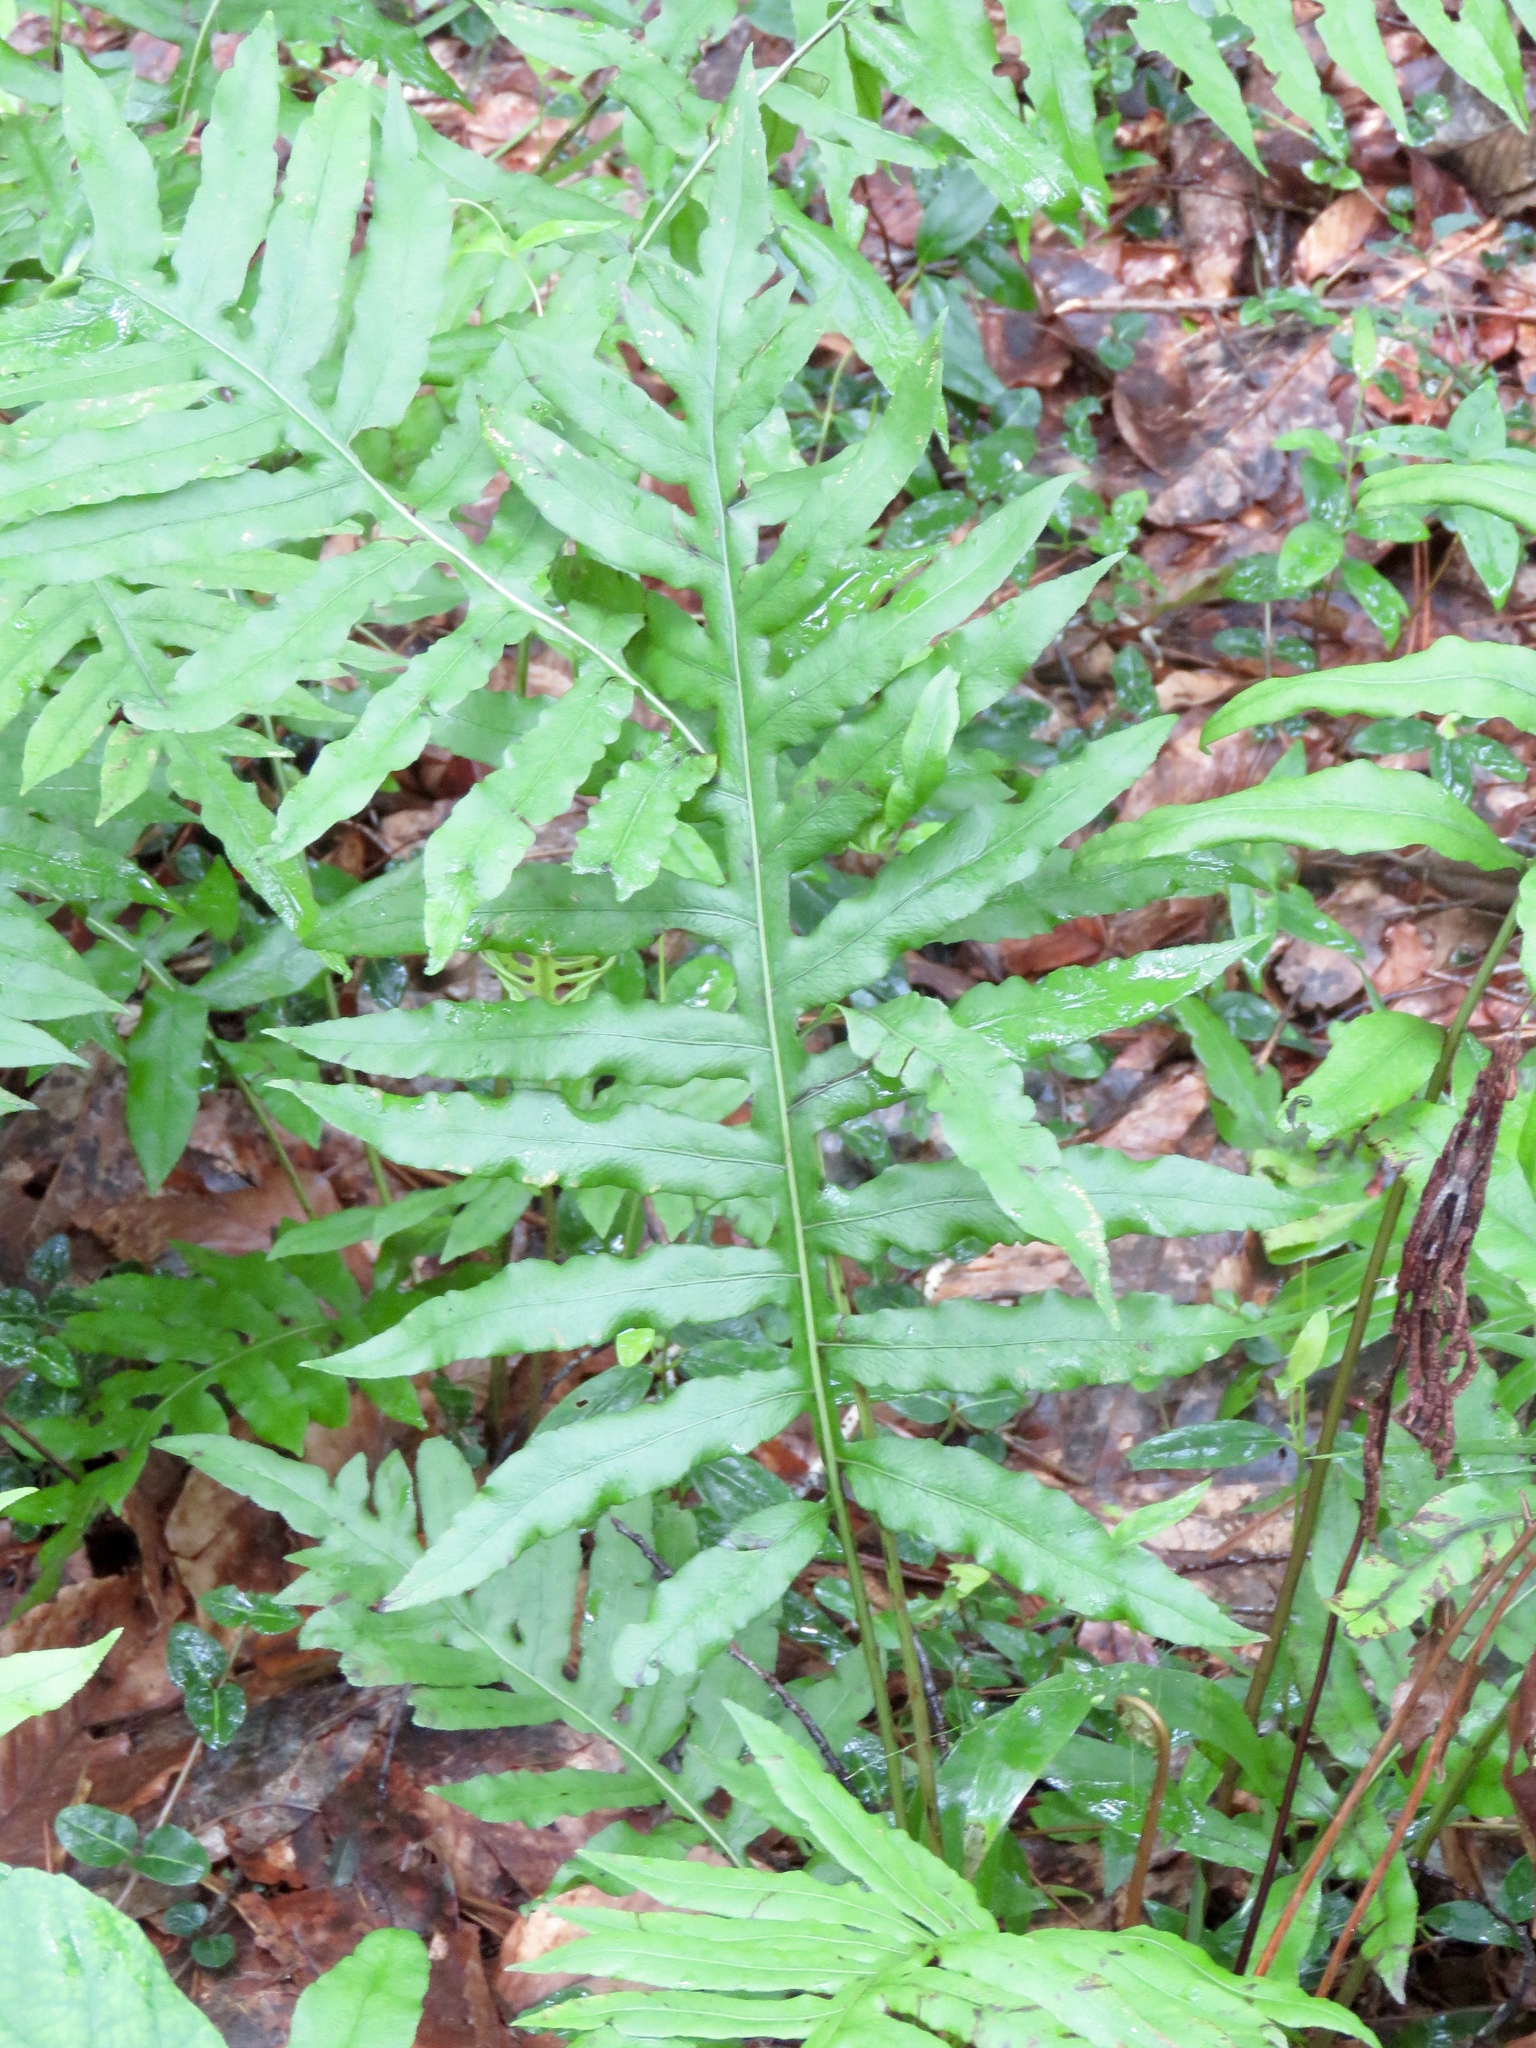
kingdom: Plantae
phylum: Tracheophyta
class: Polypodiopsida
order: Polypodiales
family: Blechnaceae
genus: Lorinseria
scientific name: Lorinseria areolata
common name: Dwarf chain fern
